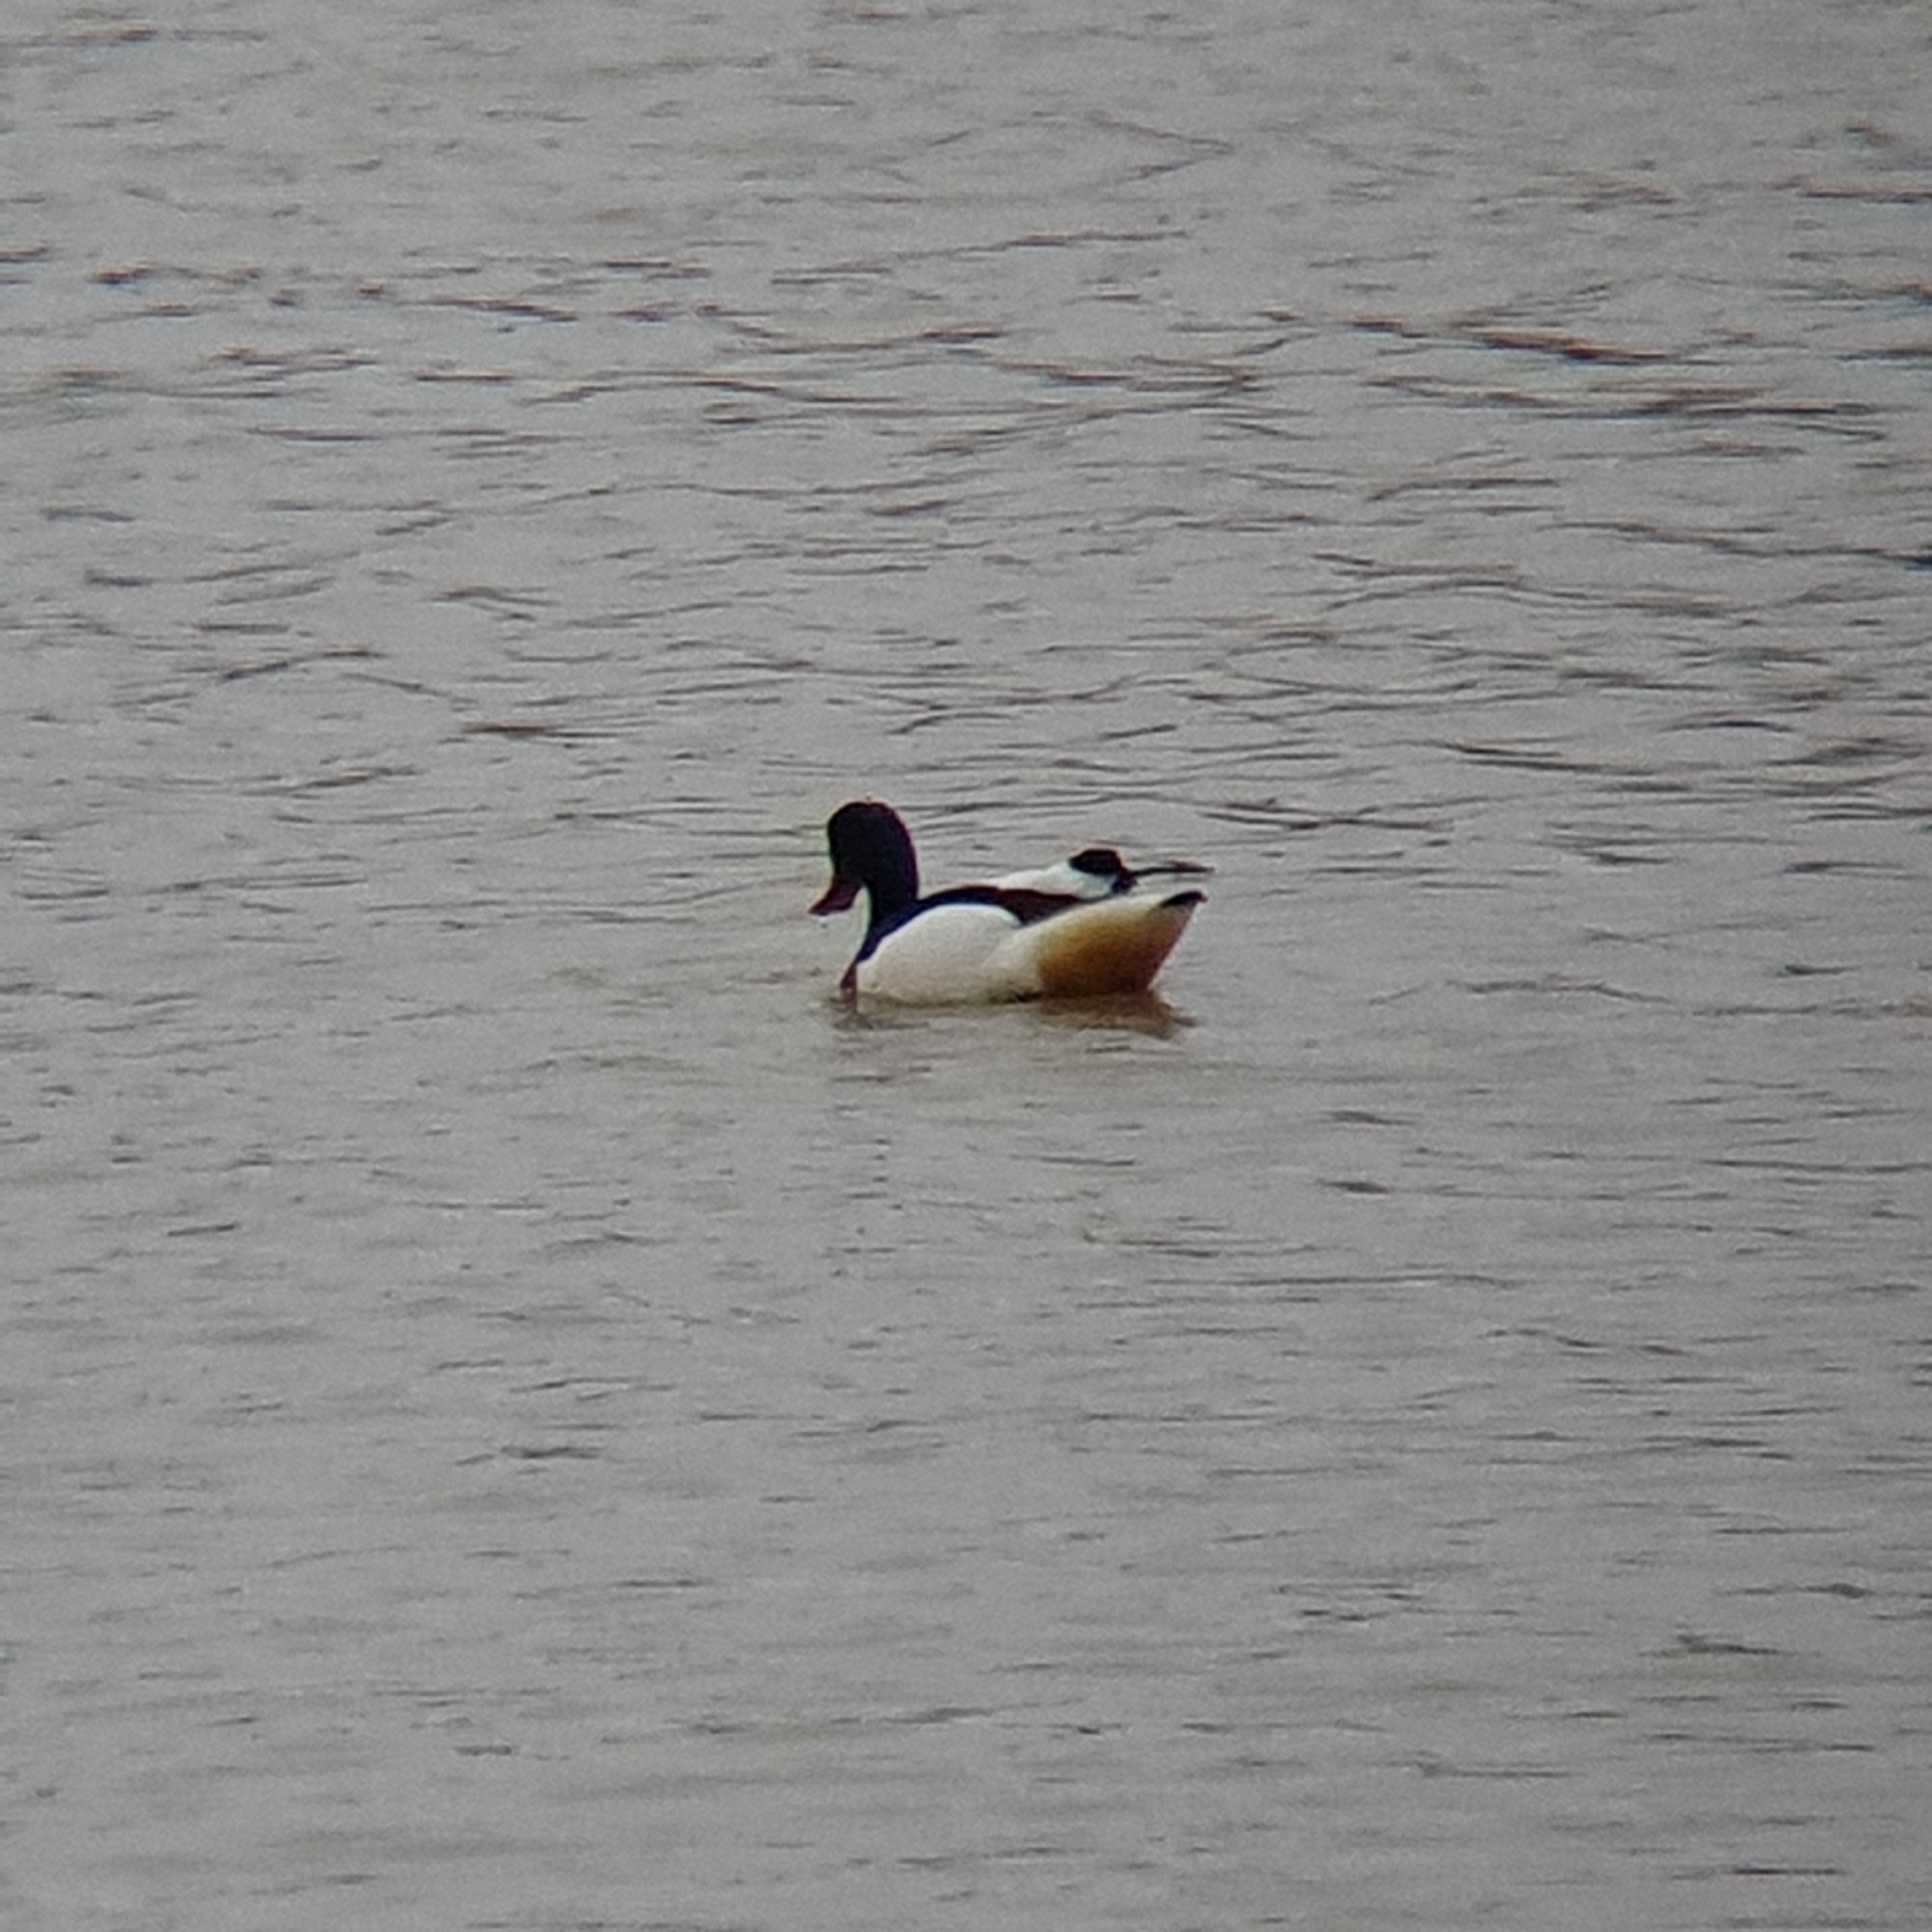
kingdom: Animalia
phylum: Chordata
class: Aves
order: Anseriformes
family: Anatidae
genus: Tadorna
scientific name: Tadorna tadorna
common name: Common shelduck
